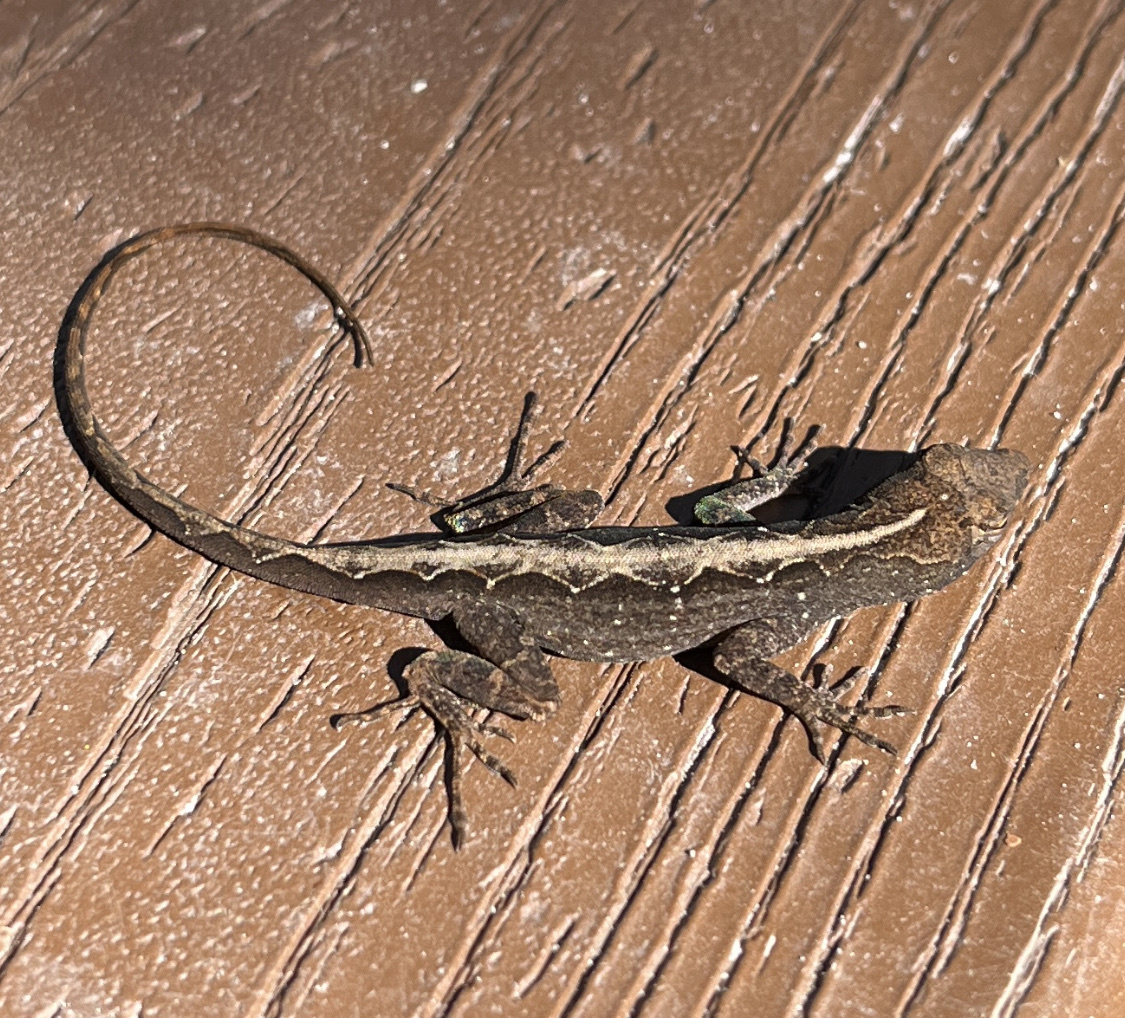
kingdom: Animalia
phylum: Chordata
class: Squamata
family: Dactyloidae
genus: Anolis
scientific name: Anolis sagrei
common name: Brown anole
